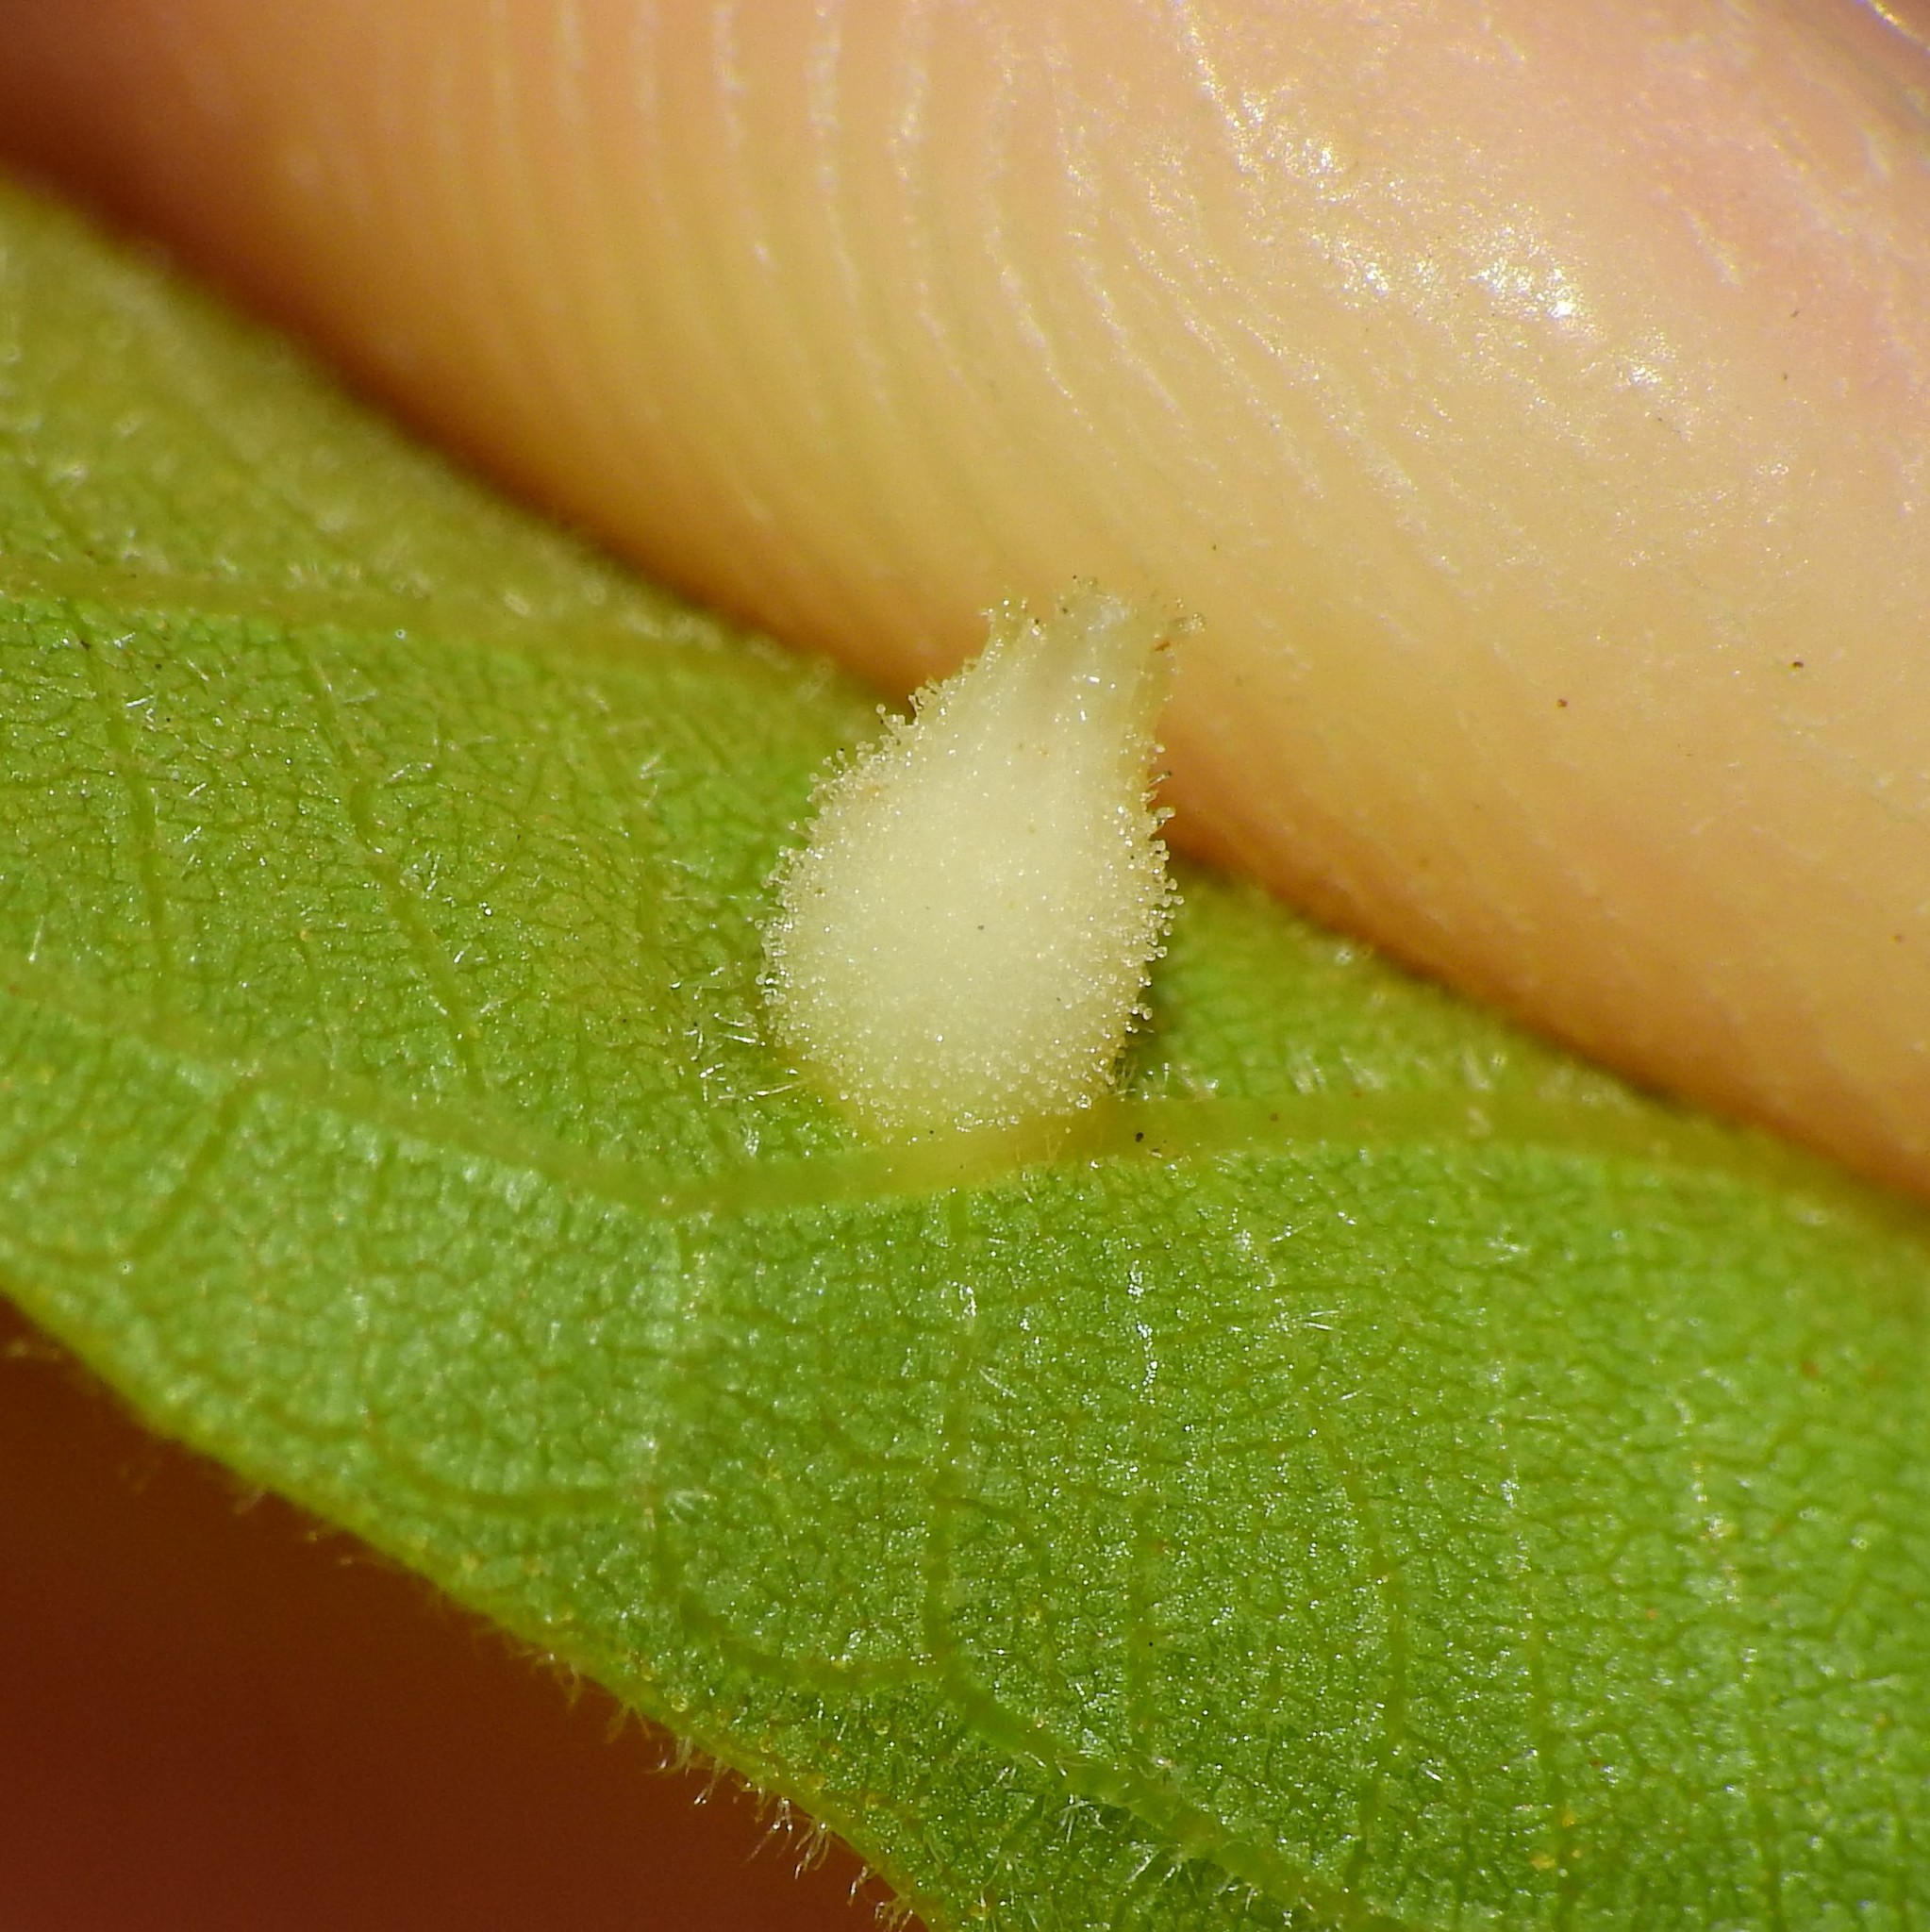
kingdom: Animalia
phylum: Arthropoda
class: Insecta
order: Hemiptera
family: Phylloxeridae
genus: Phylloxera
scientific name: Phylloxera caryaegummosa
